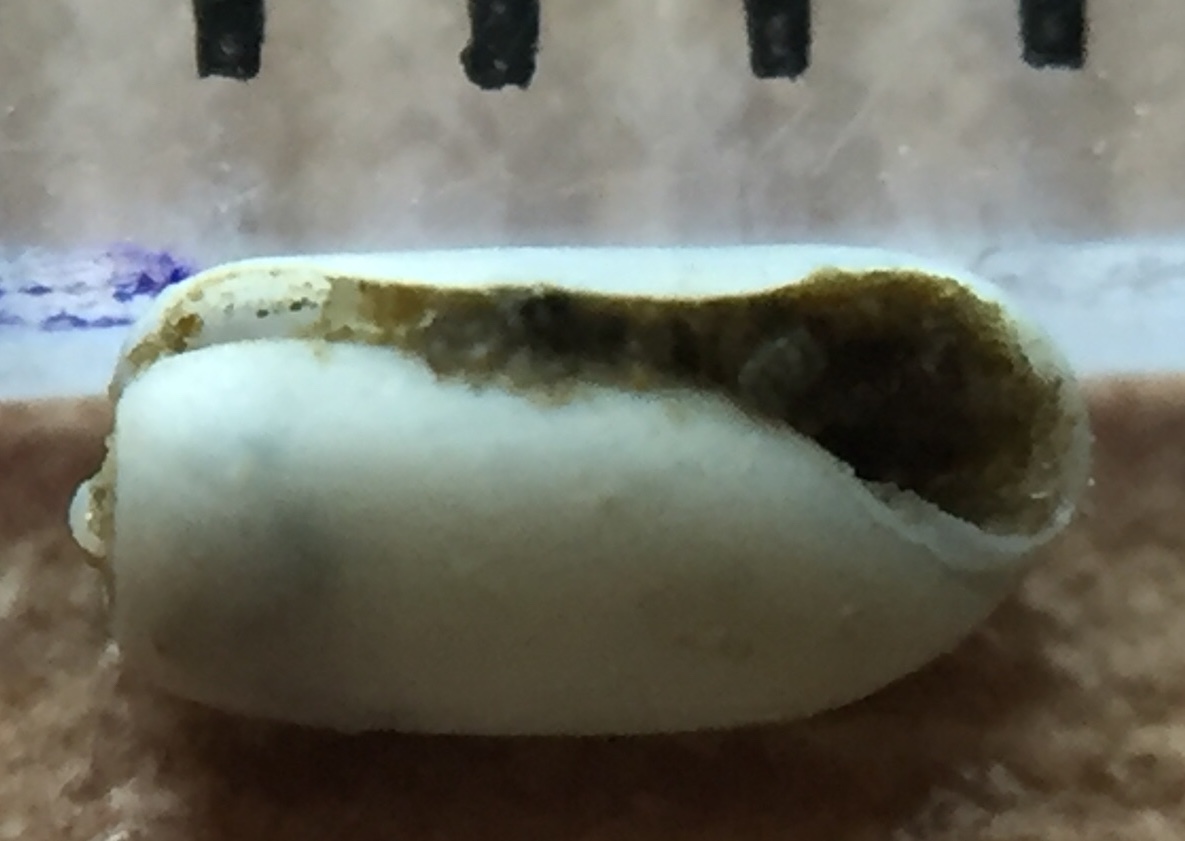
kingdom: Animalia
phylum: Mollusca
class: Gastropoda
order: Cephalaspidea
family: Retusidae
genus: Retusa
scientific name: Retusa oruaensis
